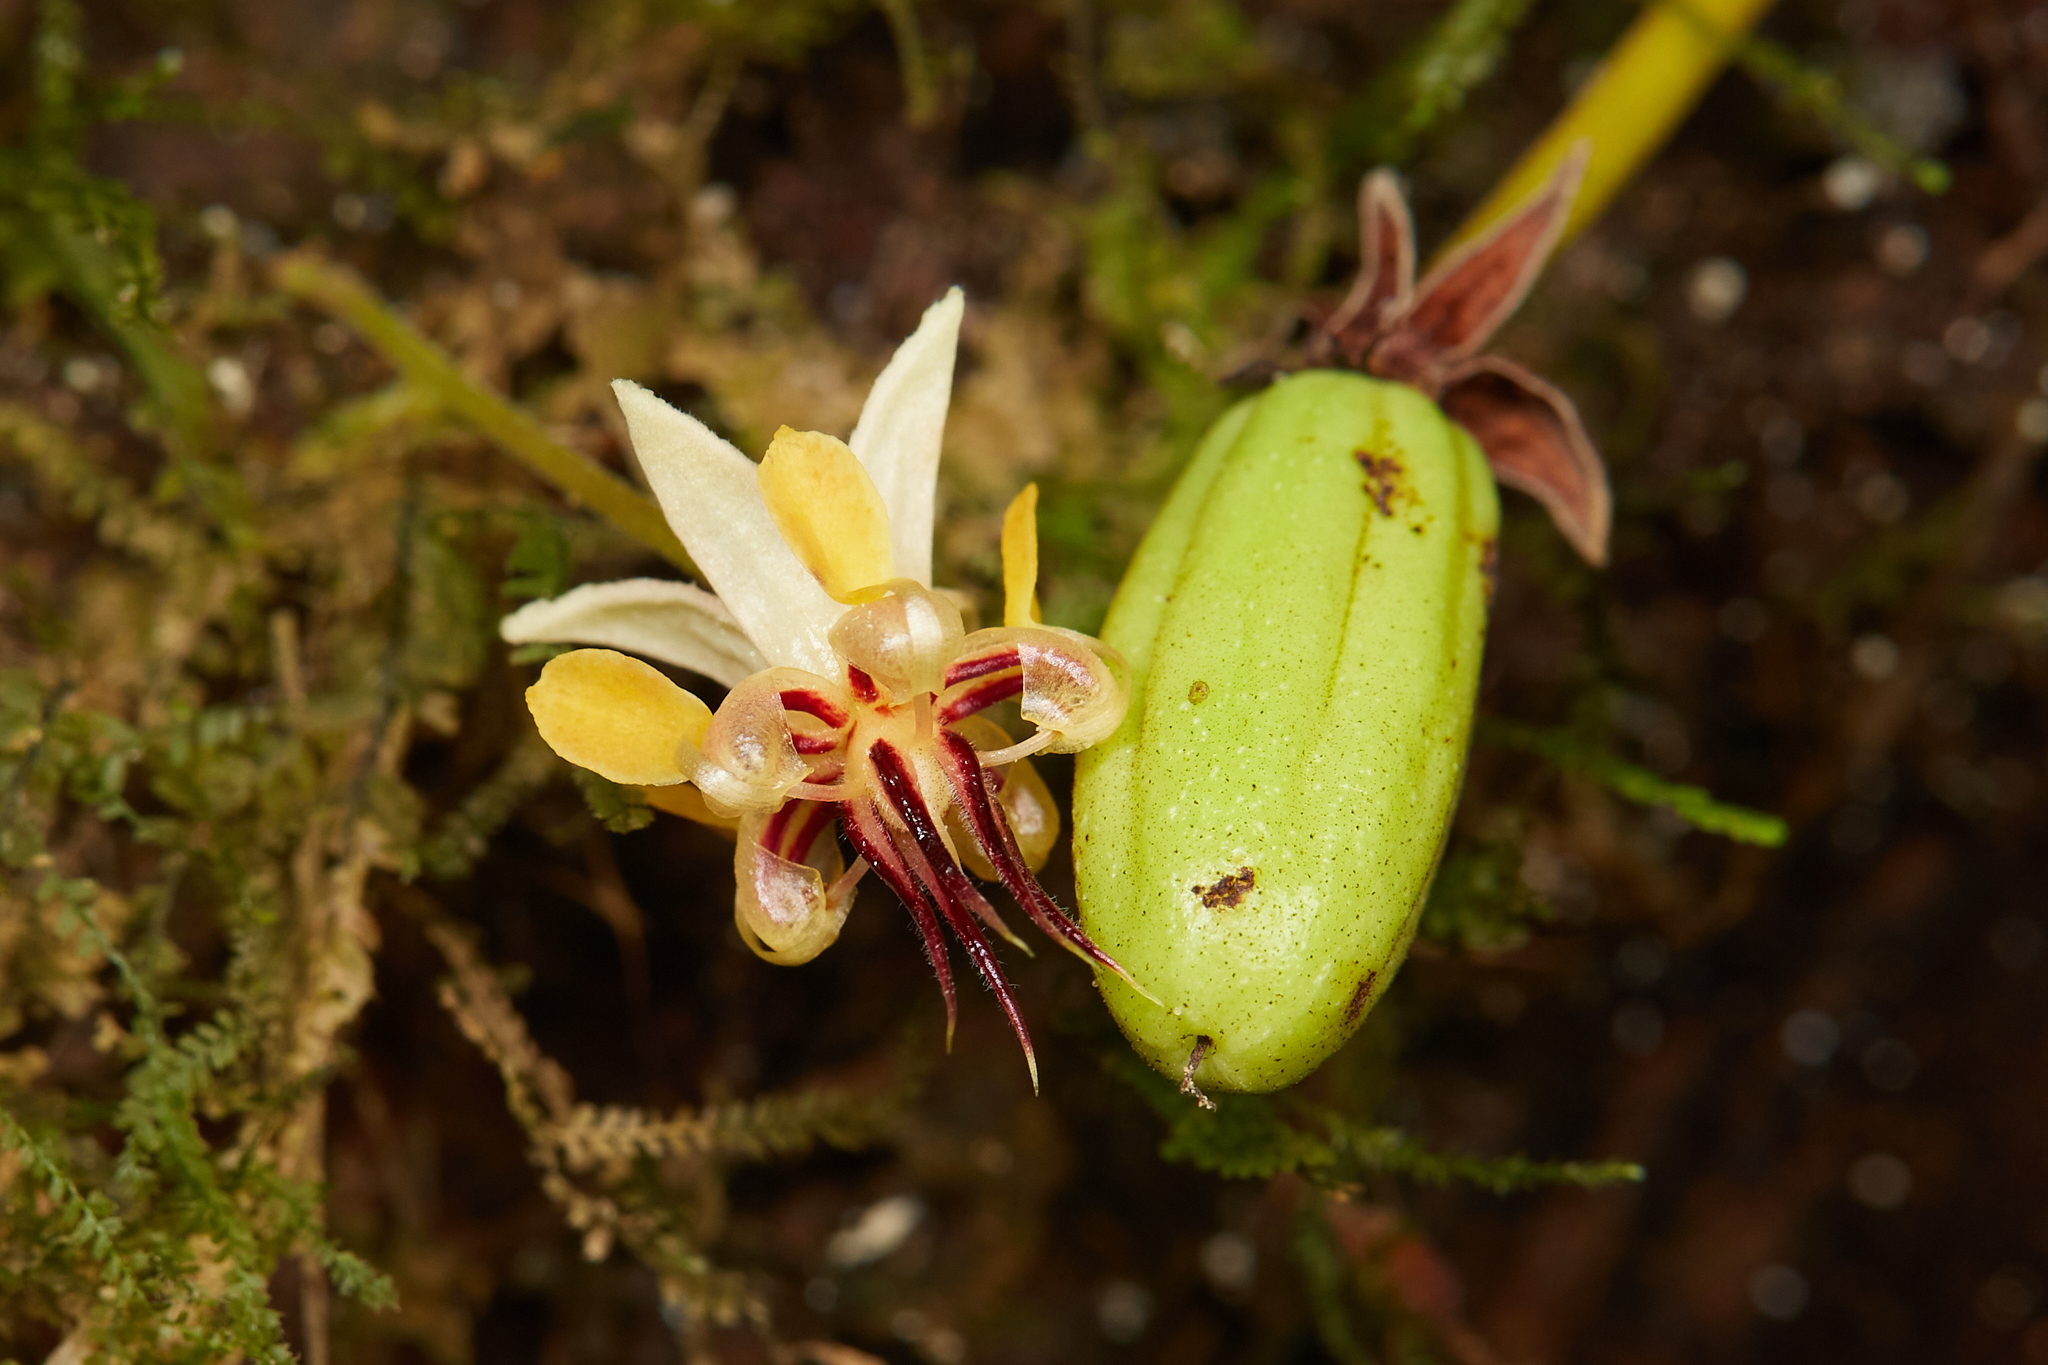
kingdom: Plantae
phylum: Tracheophyta
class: Magnoliopsida
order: Malvales
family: Malvaceae
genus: Theobroma
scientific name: Theobroma cacao
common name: Cocoa
